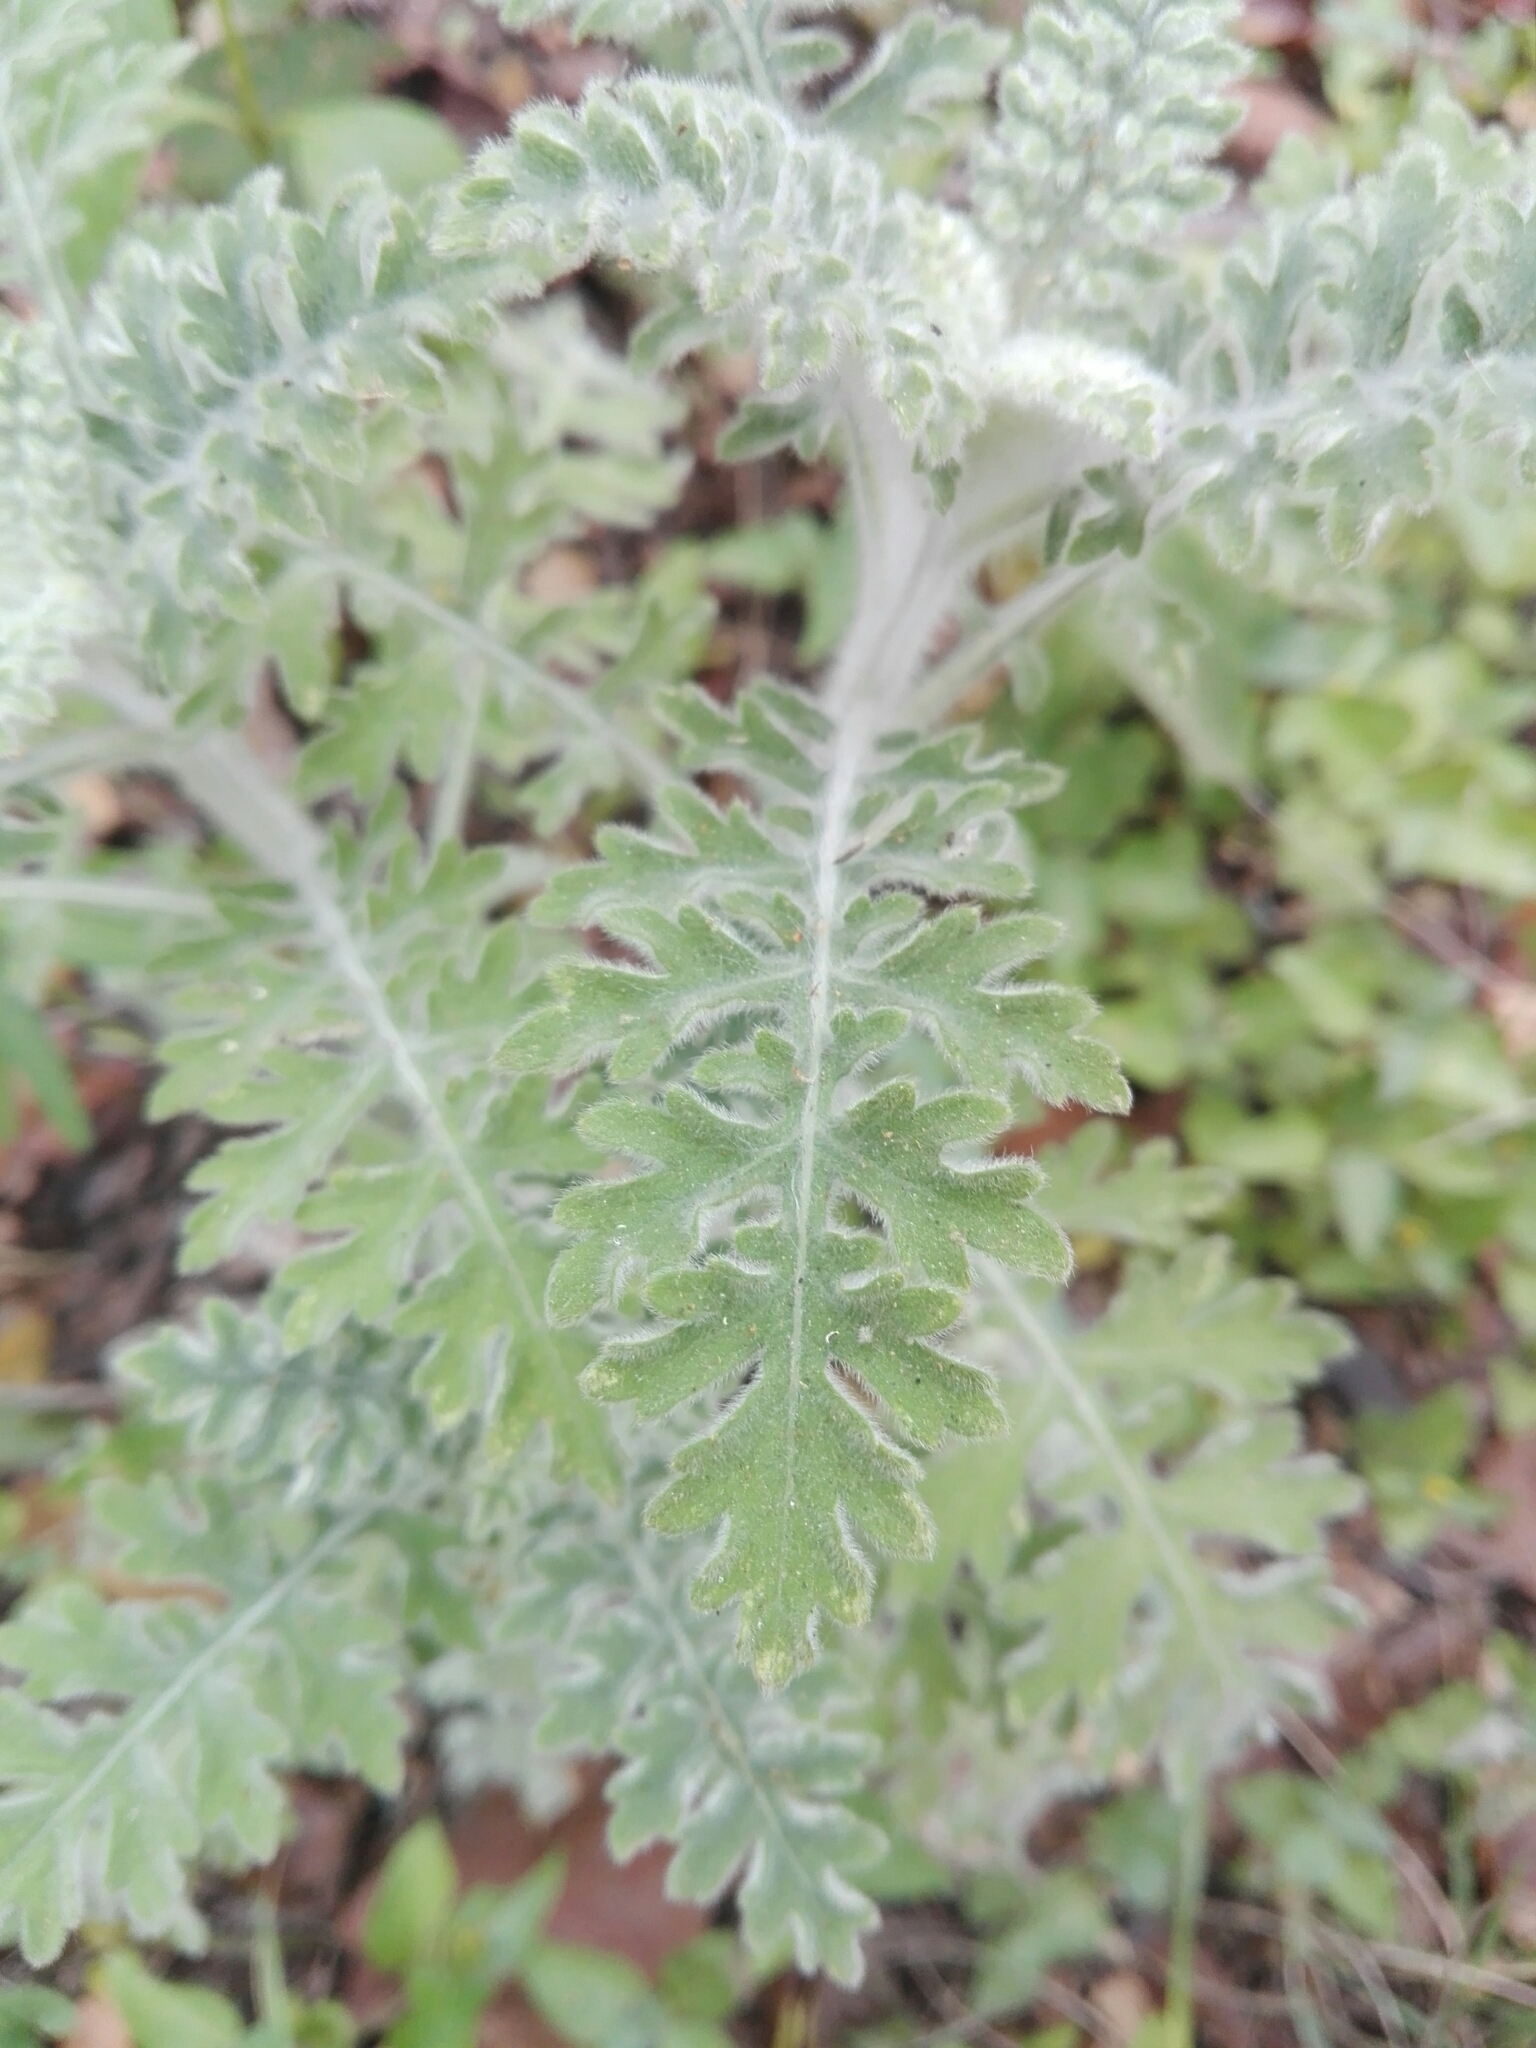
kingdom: Plantae
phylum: Tracheophyta
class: Magnoliopsida
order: Asterales
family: Asteraceae
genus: Parthenium
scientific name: Parthenium hysterophorus
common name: Santa maria feverfew
